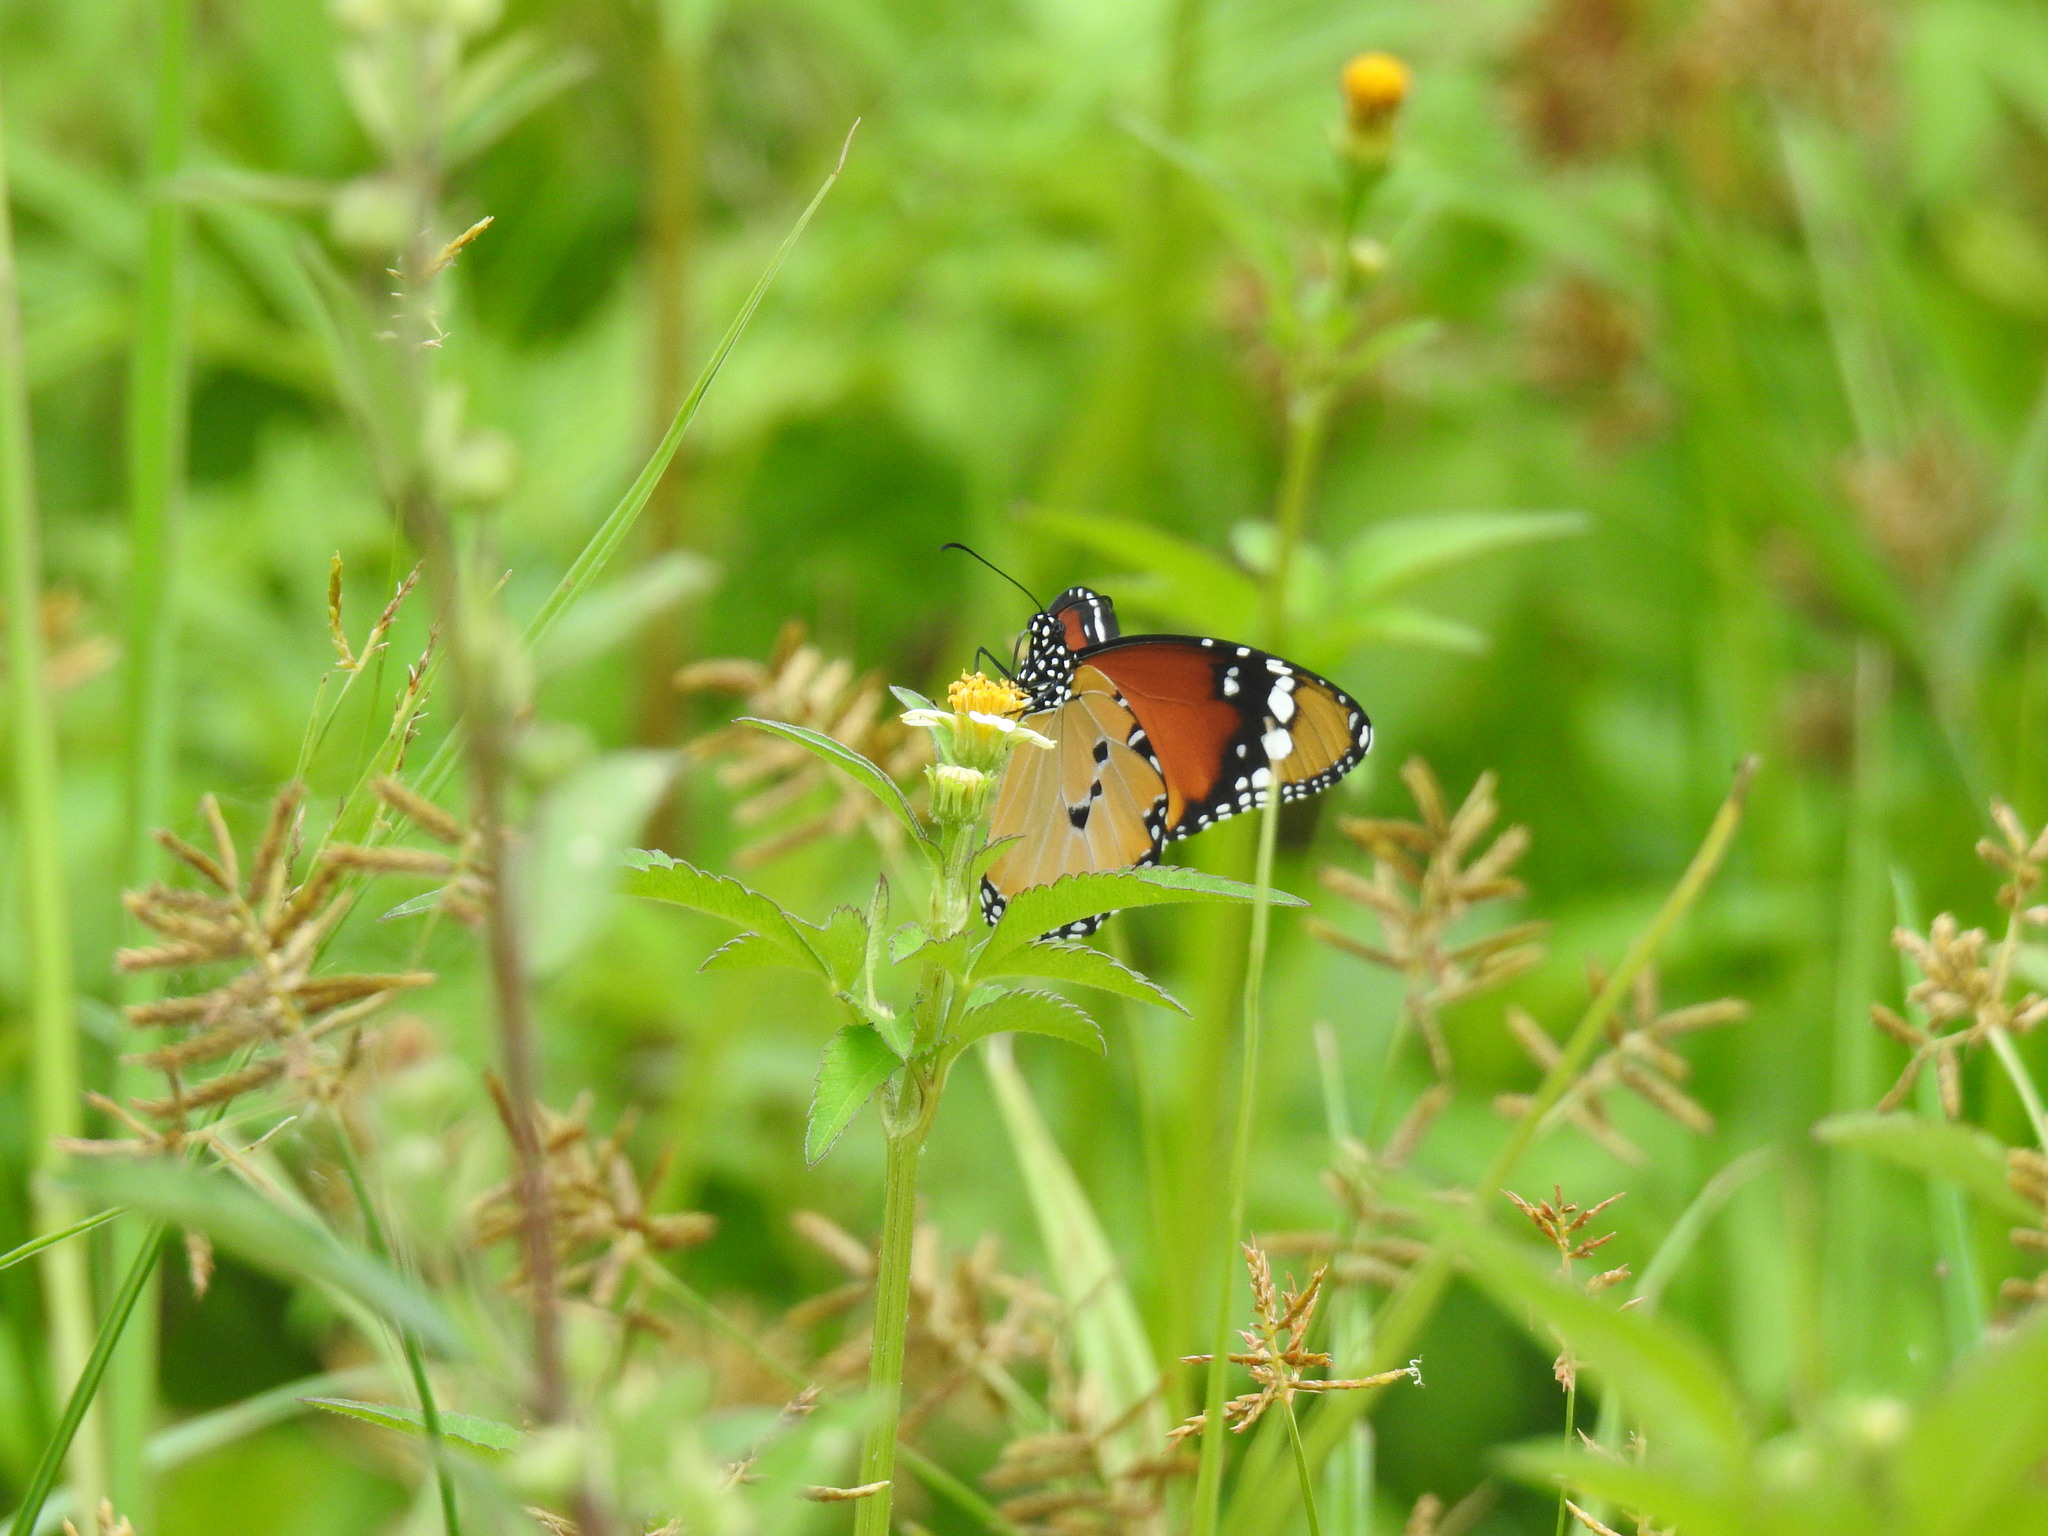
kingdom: Animalia
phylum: Arthropoda
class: Insecta
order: Lepidoptera
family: Nymphalidae
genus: Danaus
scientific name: Danaus chrysippus
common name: Plain tiger
